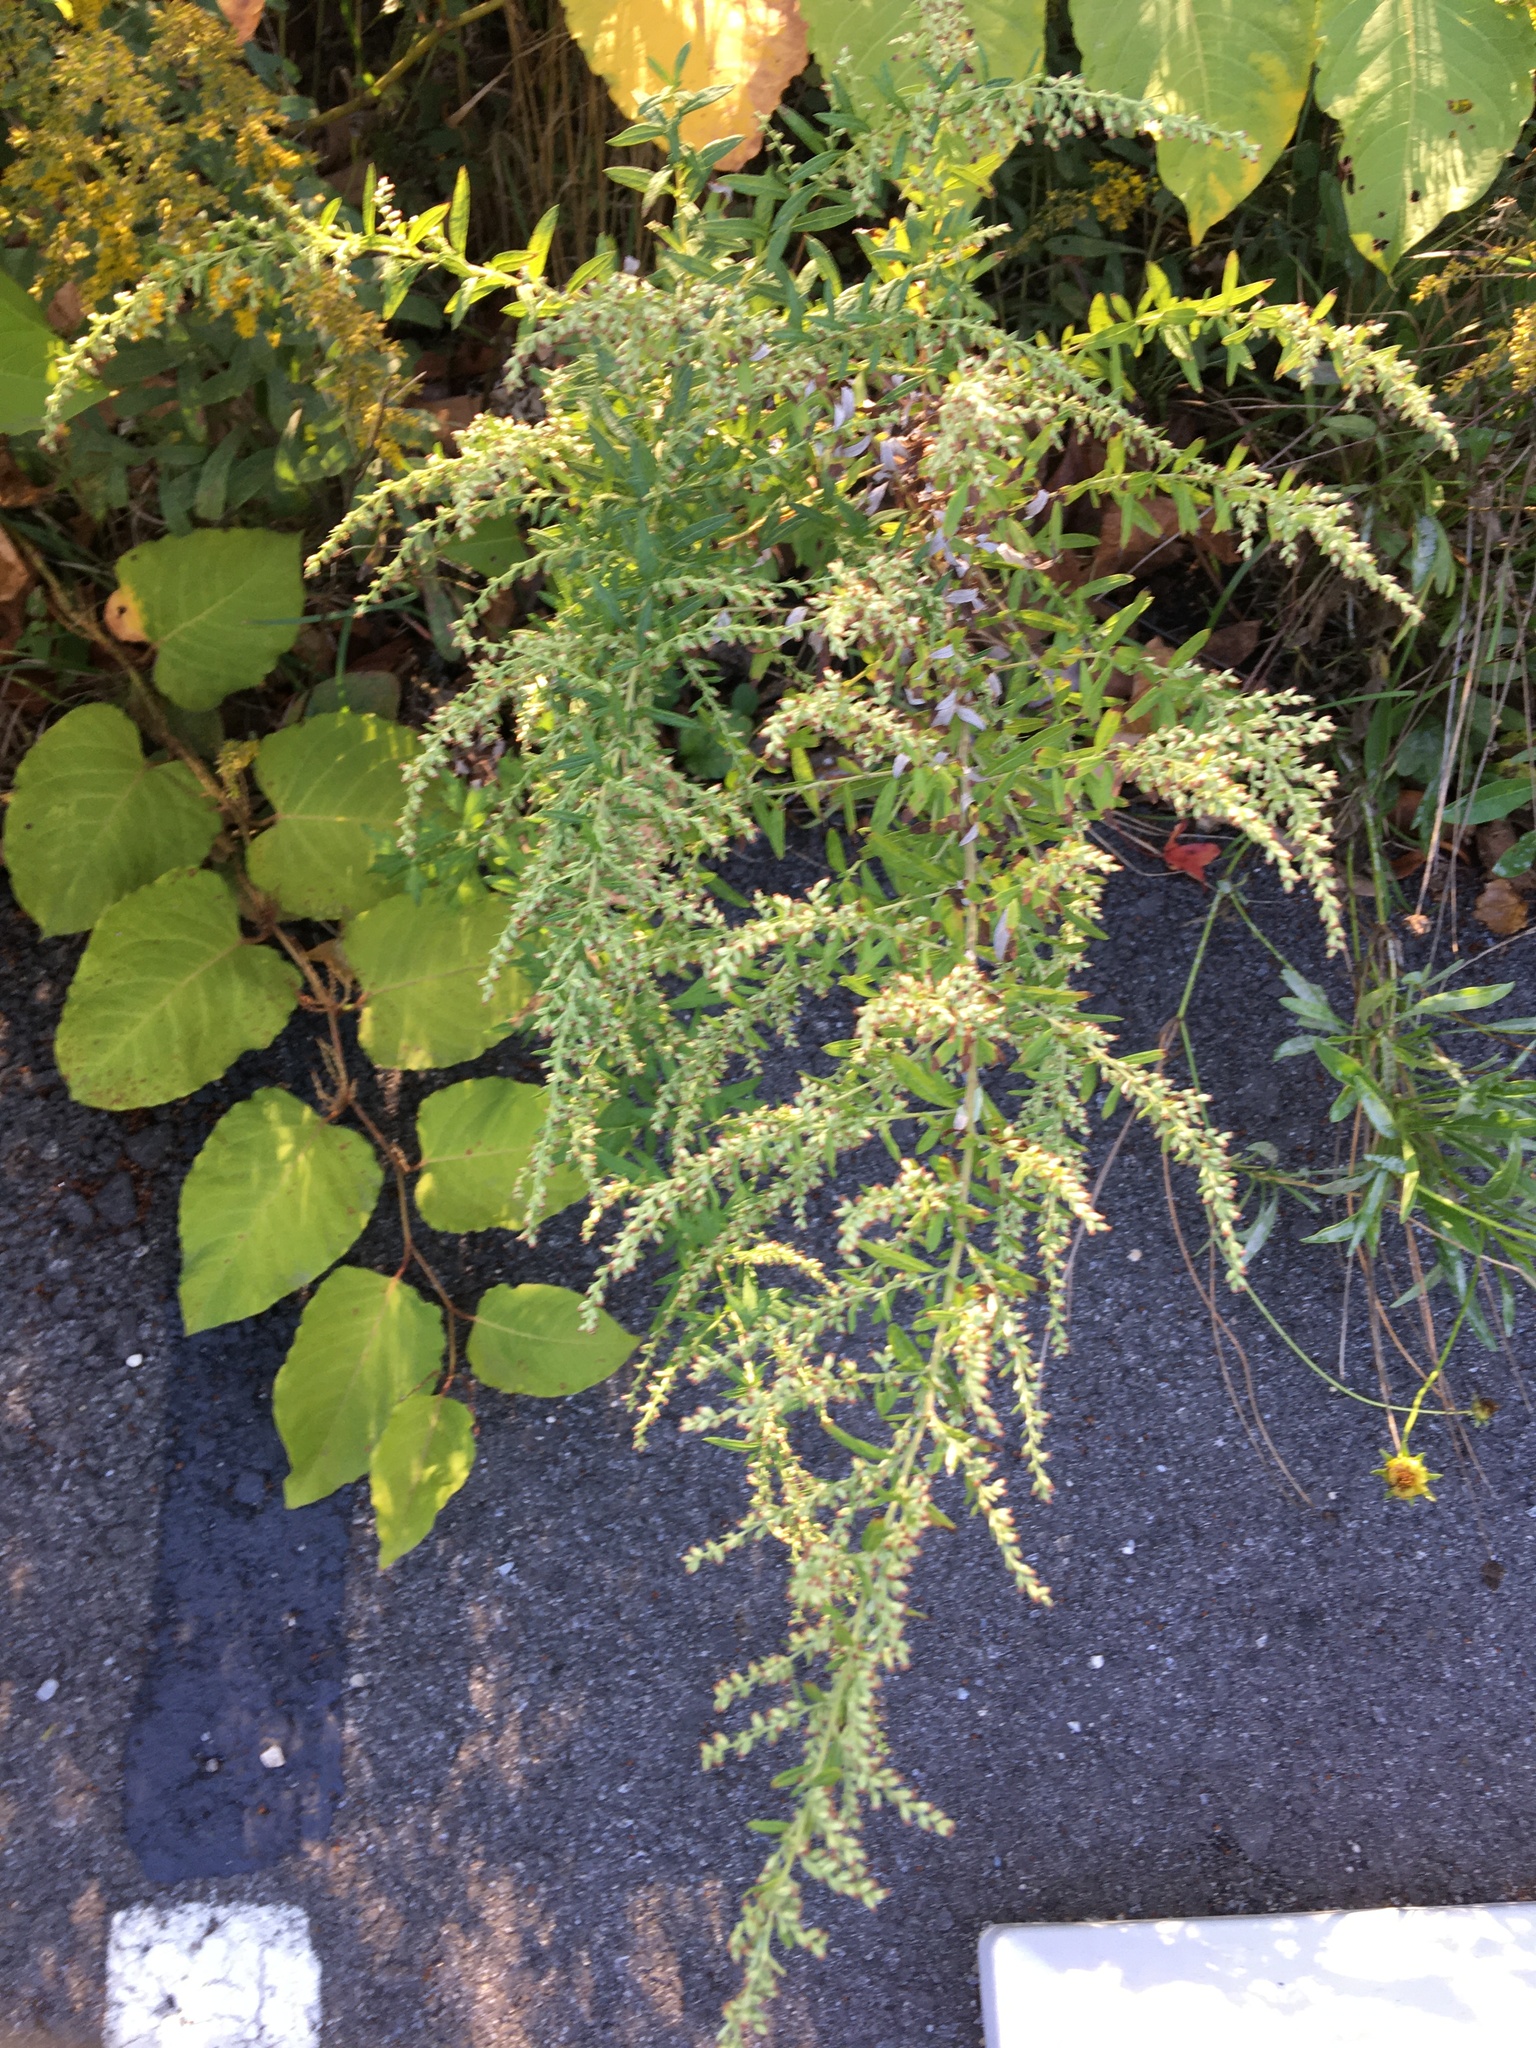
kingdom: Plantae
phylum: Tracheophyta
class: Magnoliopsida
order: Asterales
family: Asteraceae
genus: Artemisia
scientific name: Artemisia vulgaris
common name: Mugwort
